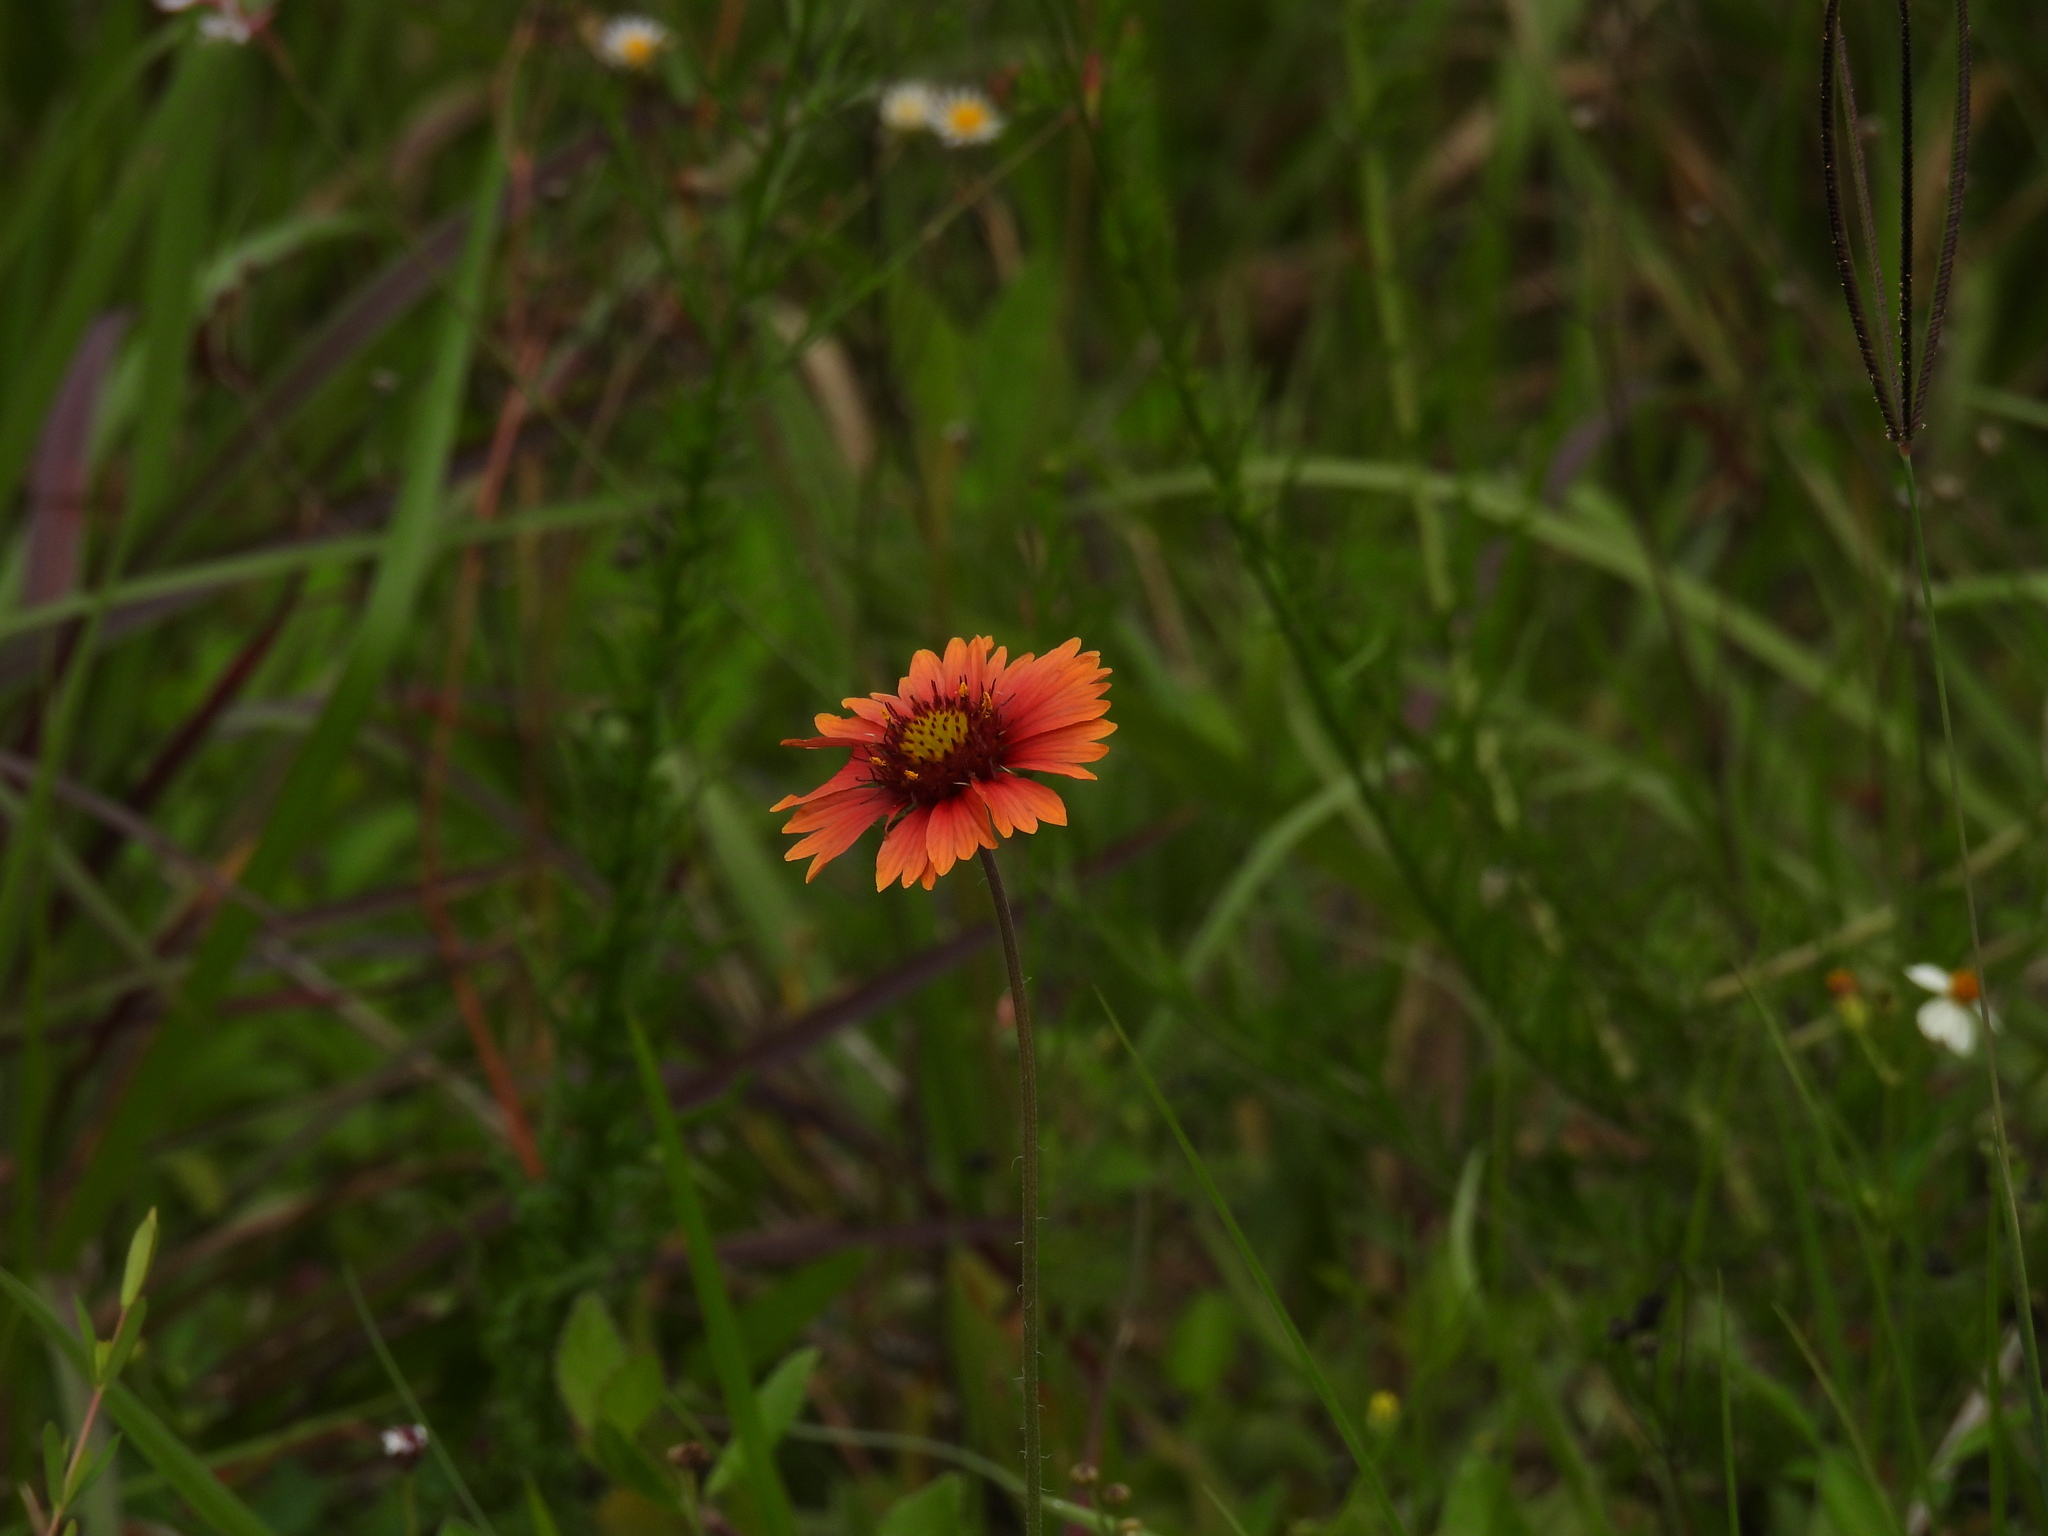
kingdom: Plantae
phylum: Tracheophyta
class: Magnoliopsida
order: Asterales
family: Asteraceae
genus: Gaillardia
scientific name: Gaillardia pulchella
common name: Firewheel
